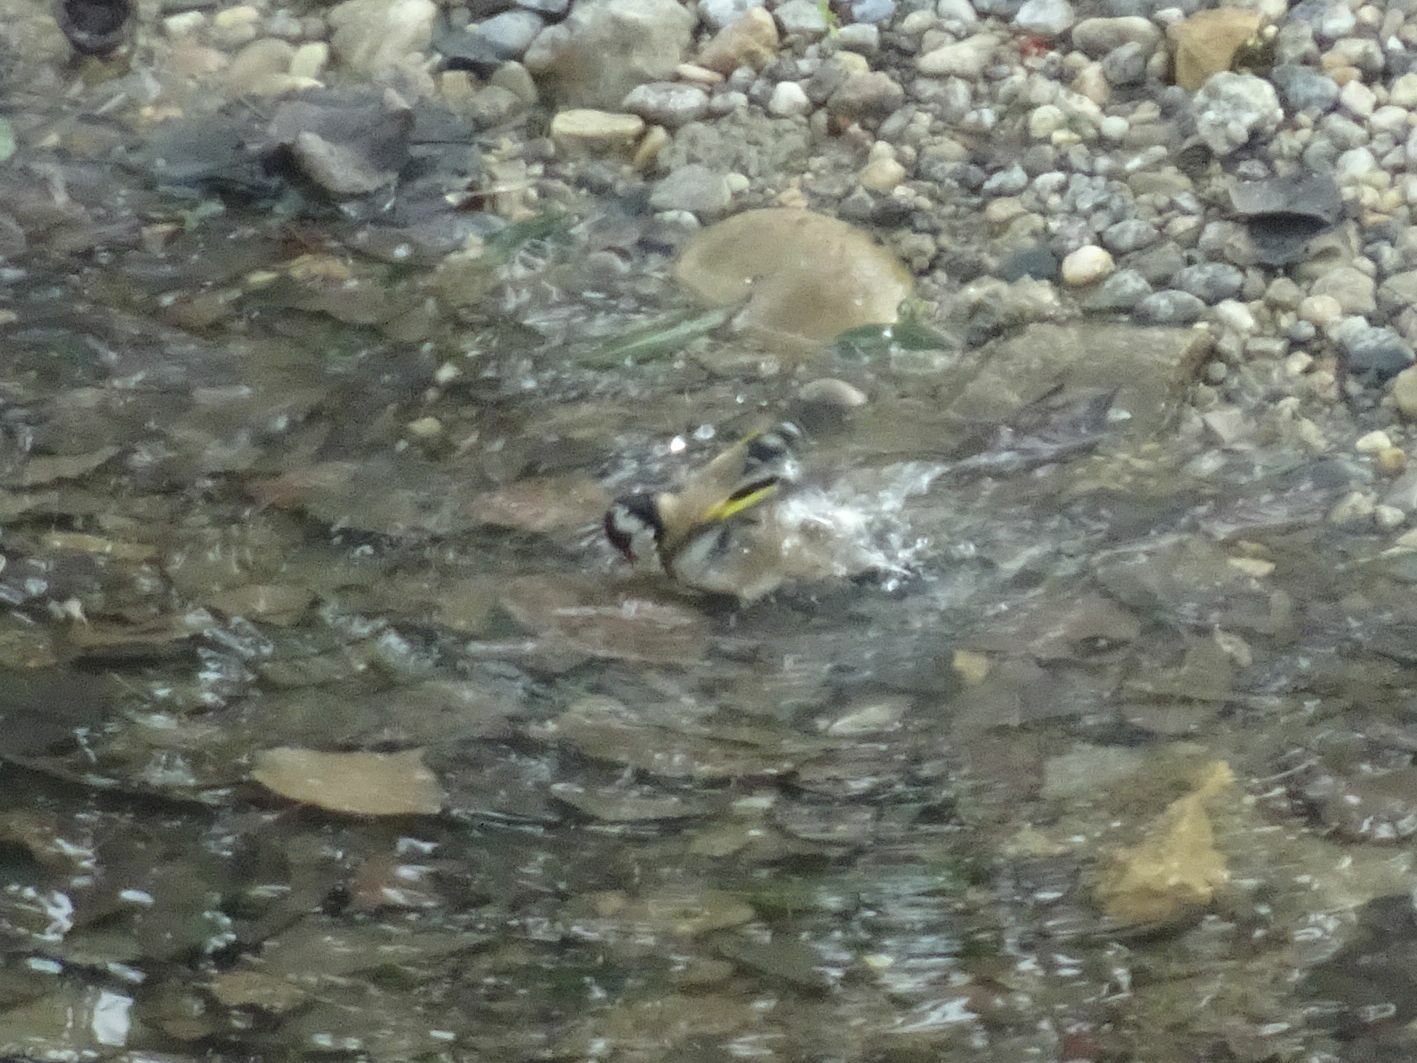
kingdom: Animalia
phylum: Chordata
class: Aves
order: Passeriformes
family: Fringillidae
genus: Carduelis
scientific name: Carduelis carduelis
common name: European goldfinch
